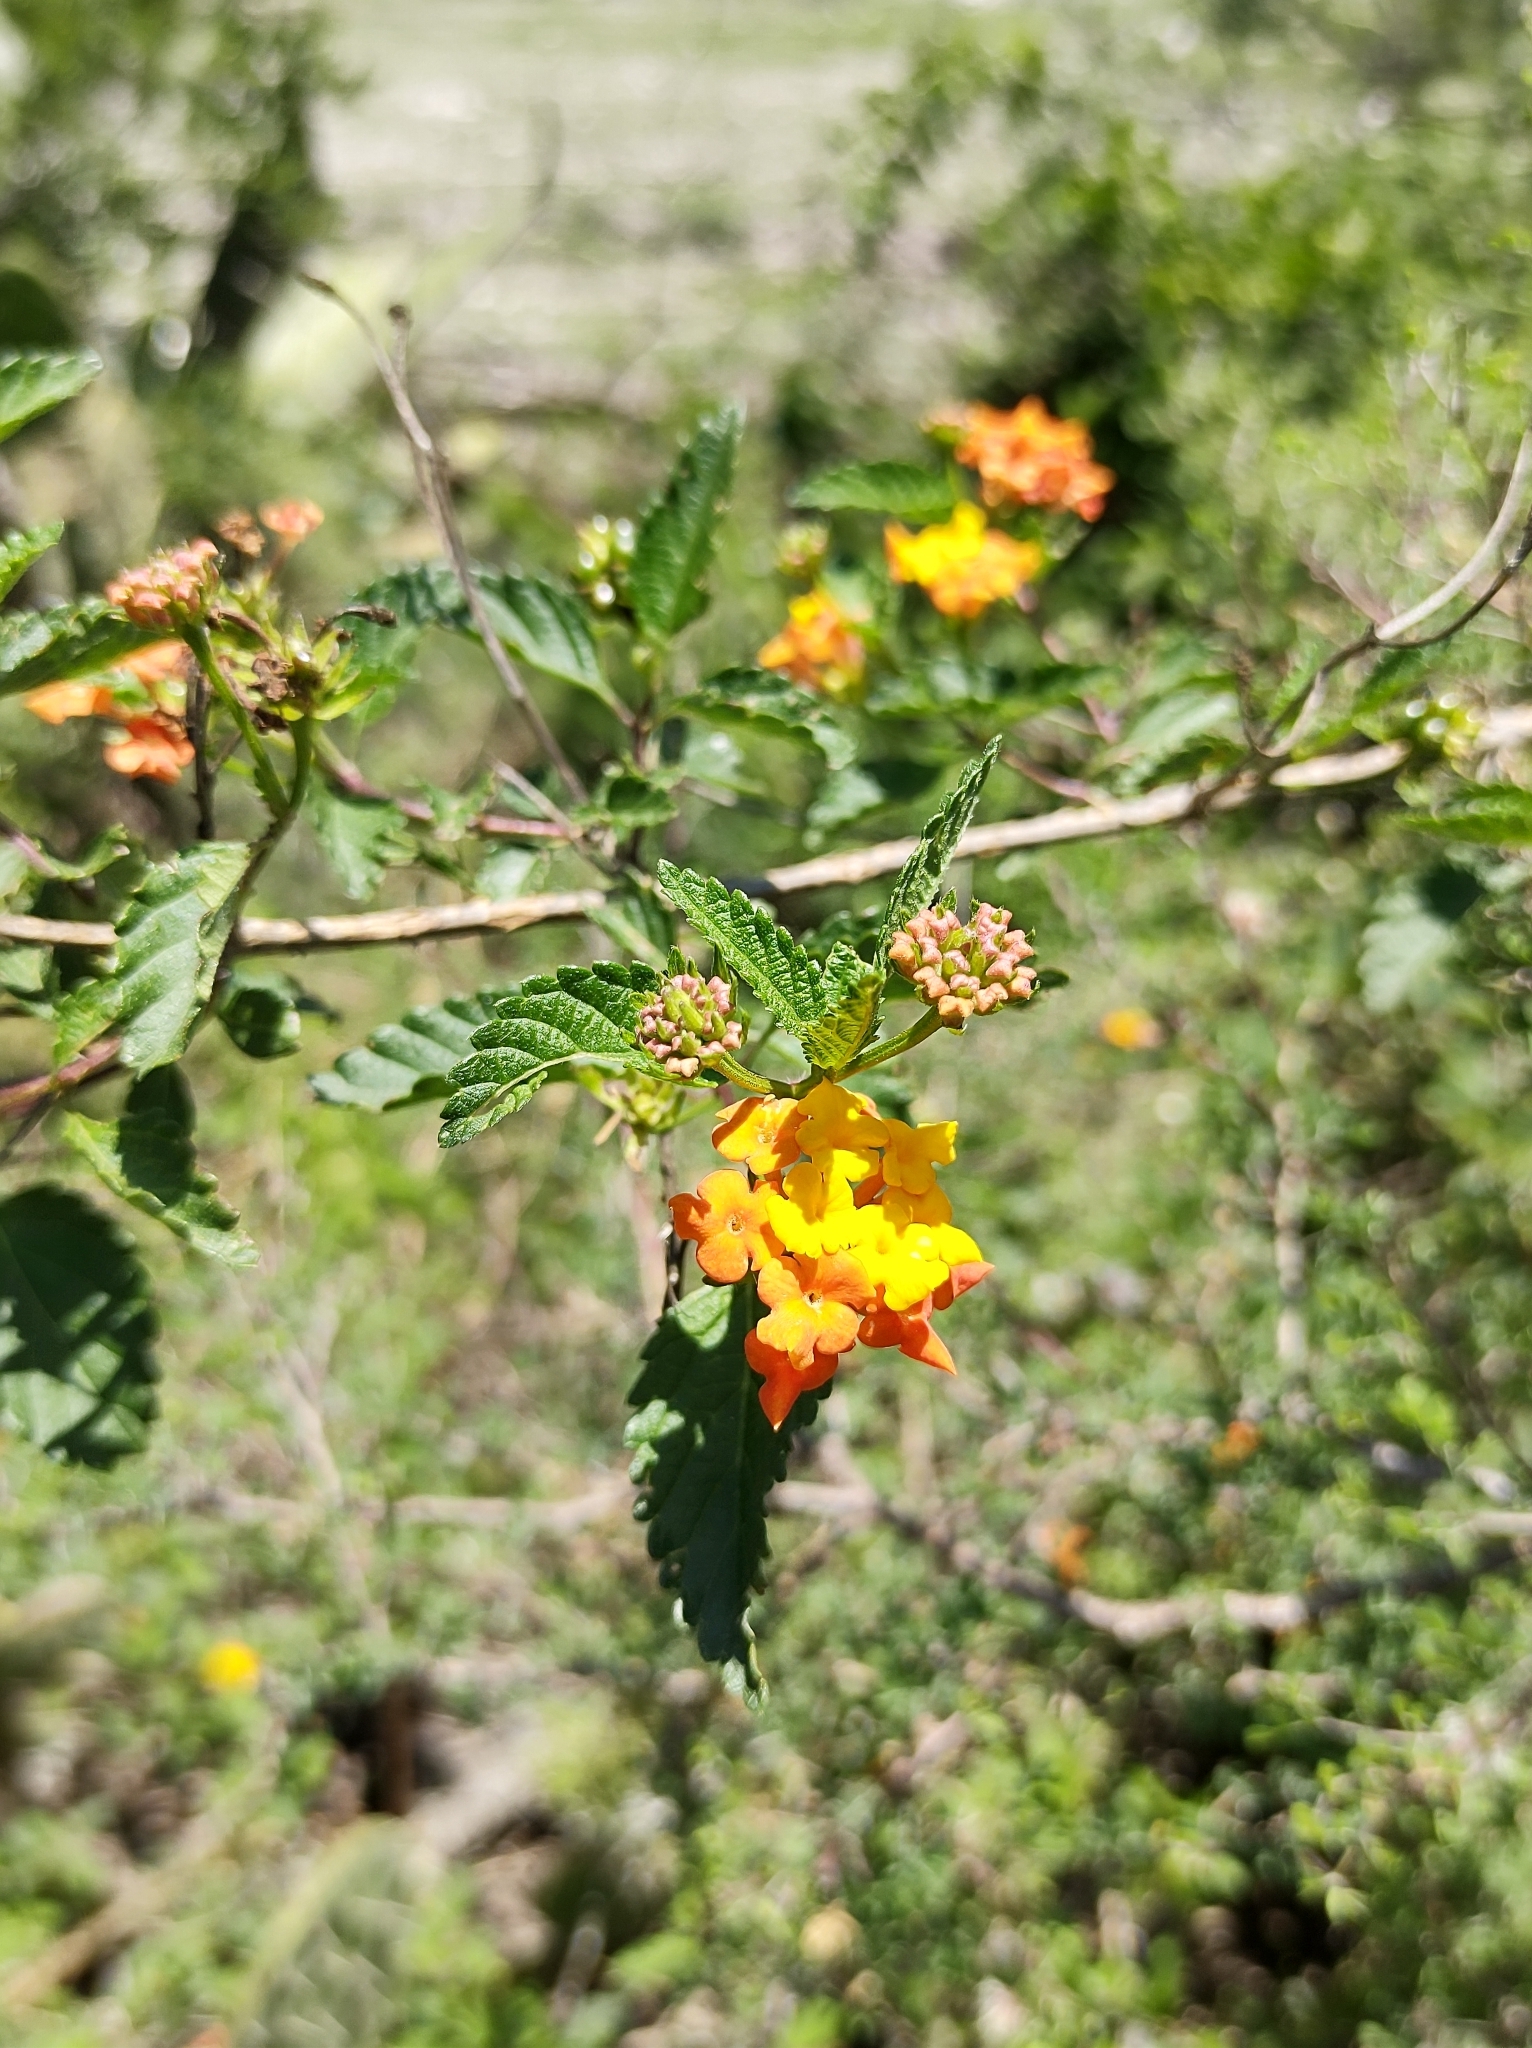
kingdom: Plantae
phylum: Tracheophyta
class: Magnoliopsida
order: Lamiales
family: Verbenaceae
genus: Lantana
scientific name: Lantana camara
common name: Lantana
